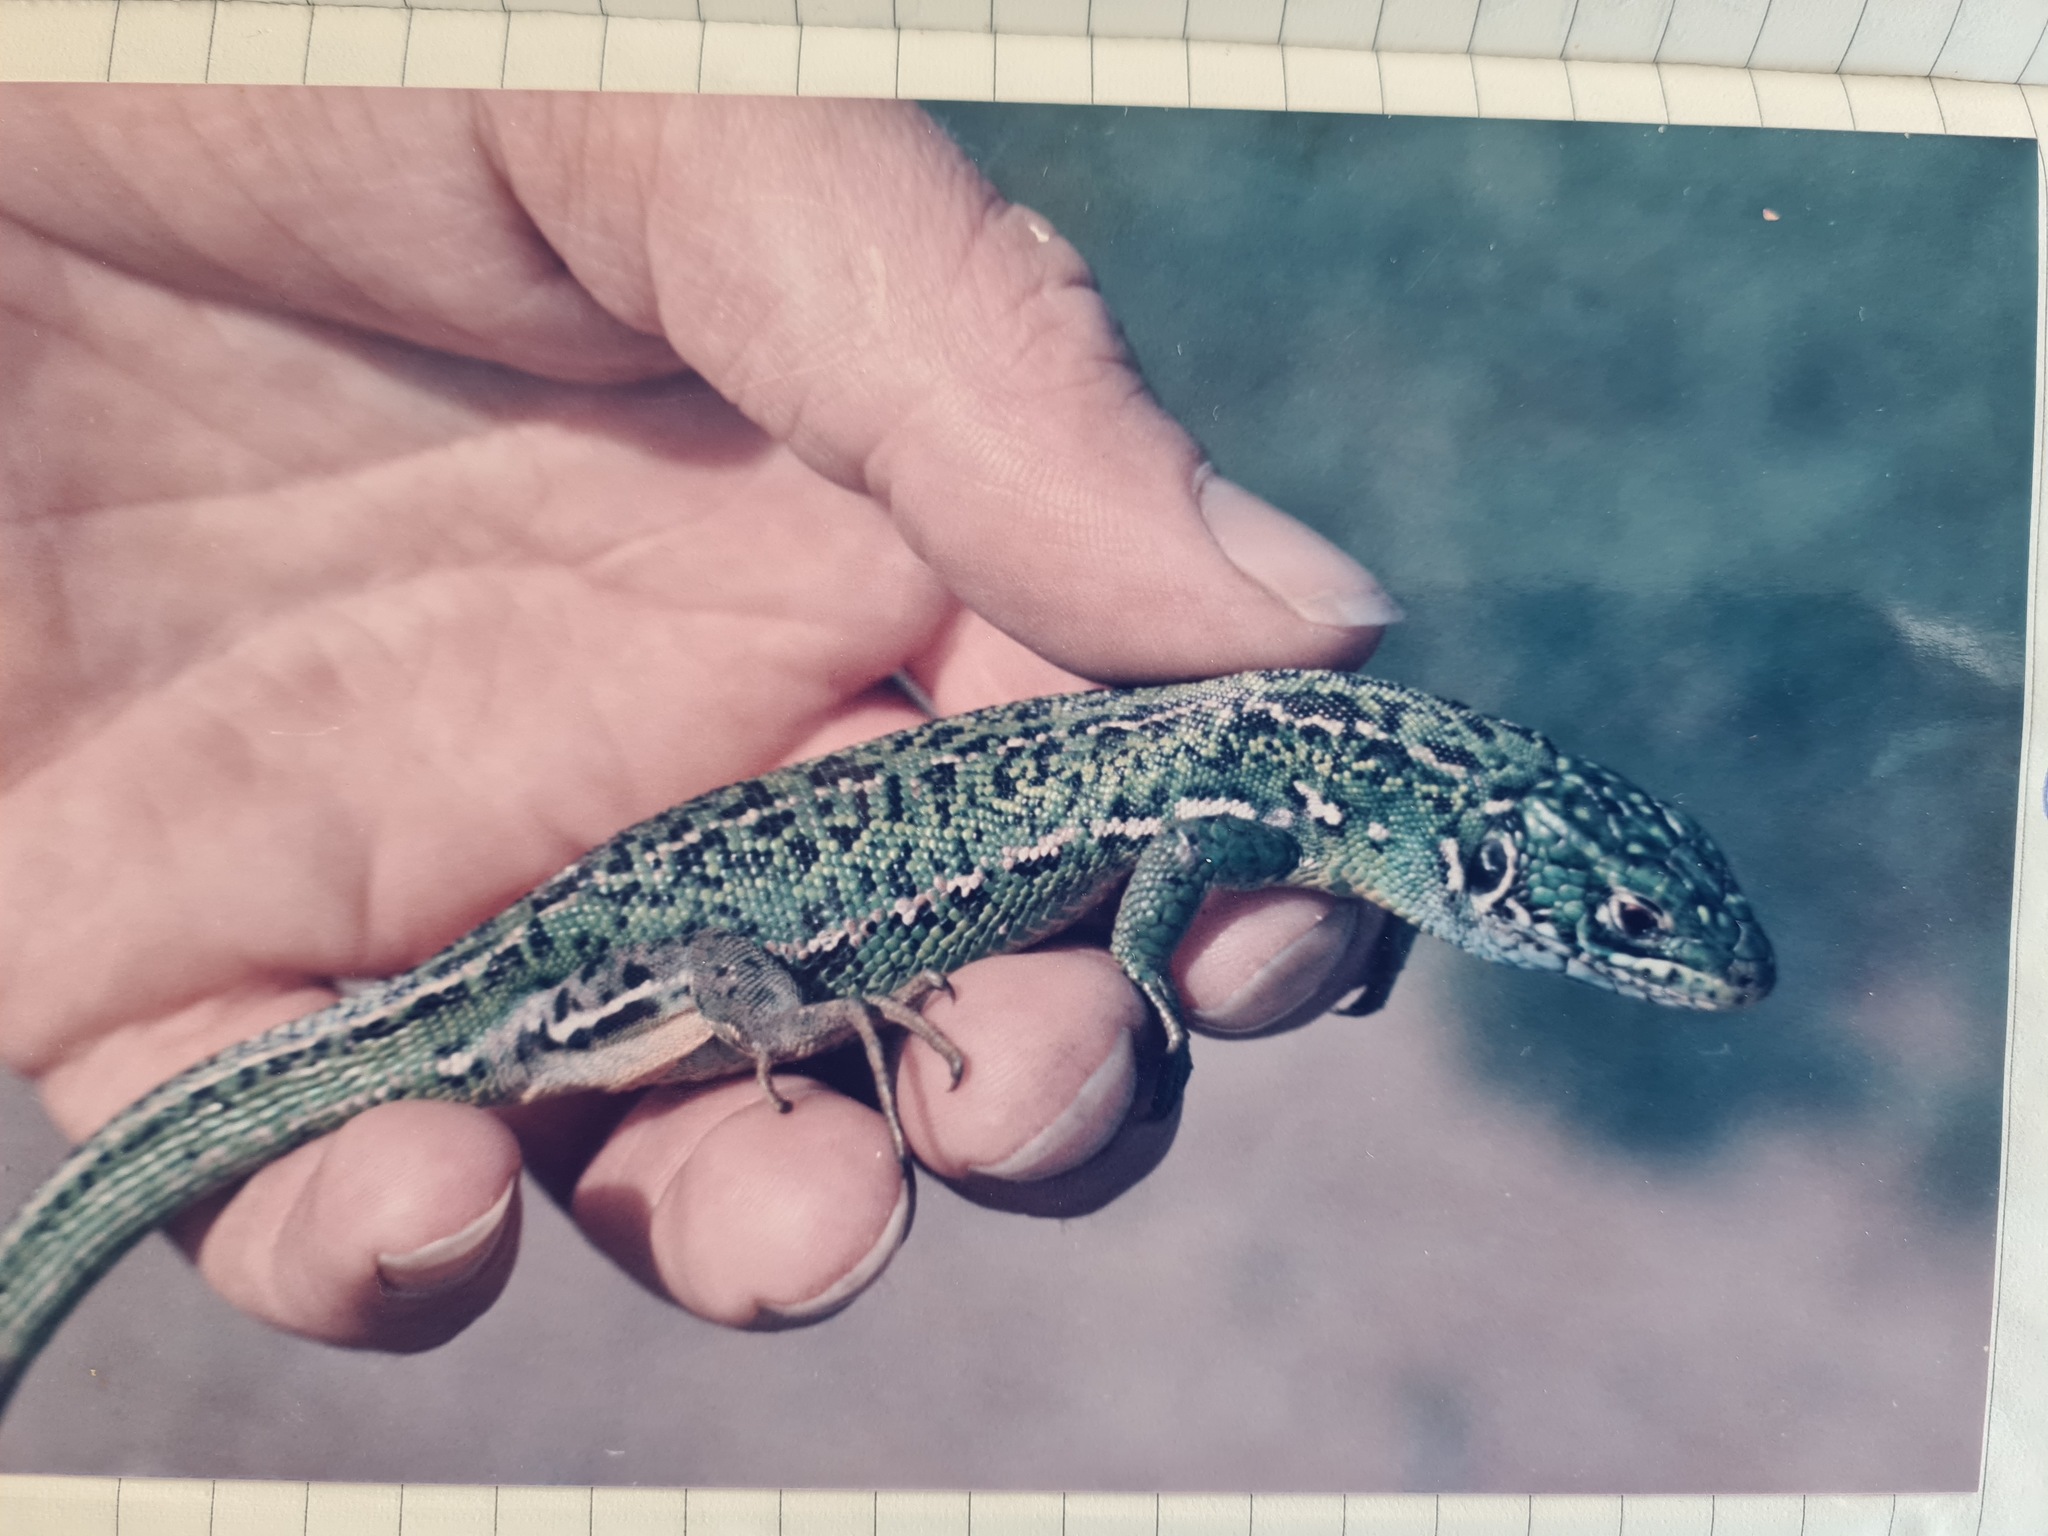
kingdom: Animalia
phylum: Chordata
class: Squamata
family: Lacertidae
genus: Lacerta
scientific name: Lacerta bilineata
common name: Western green lizard
